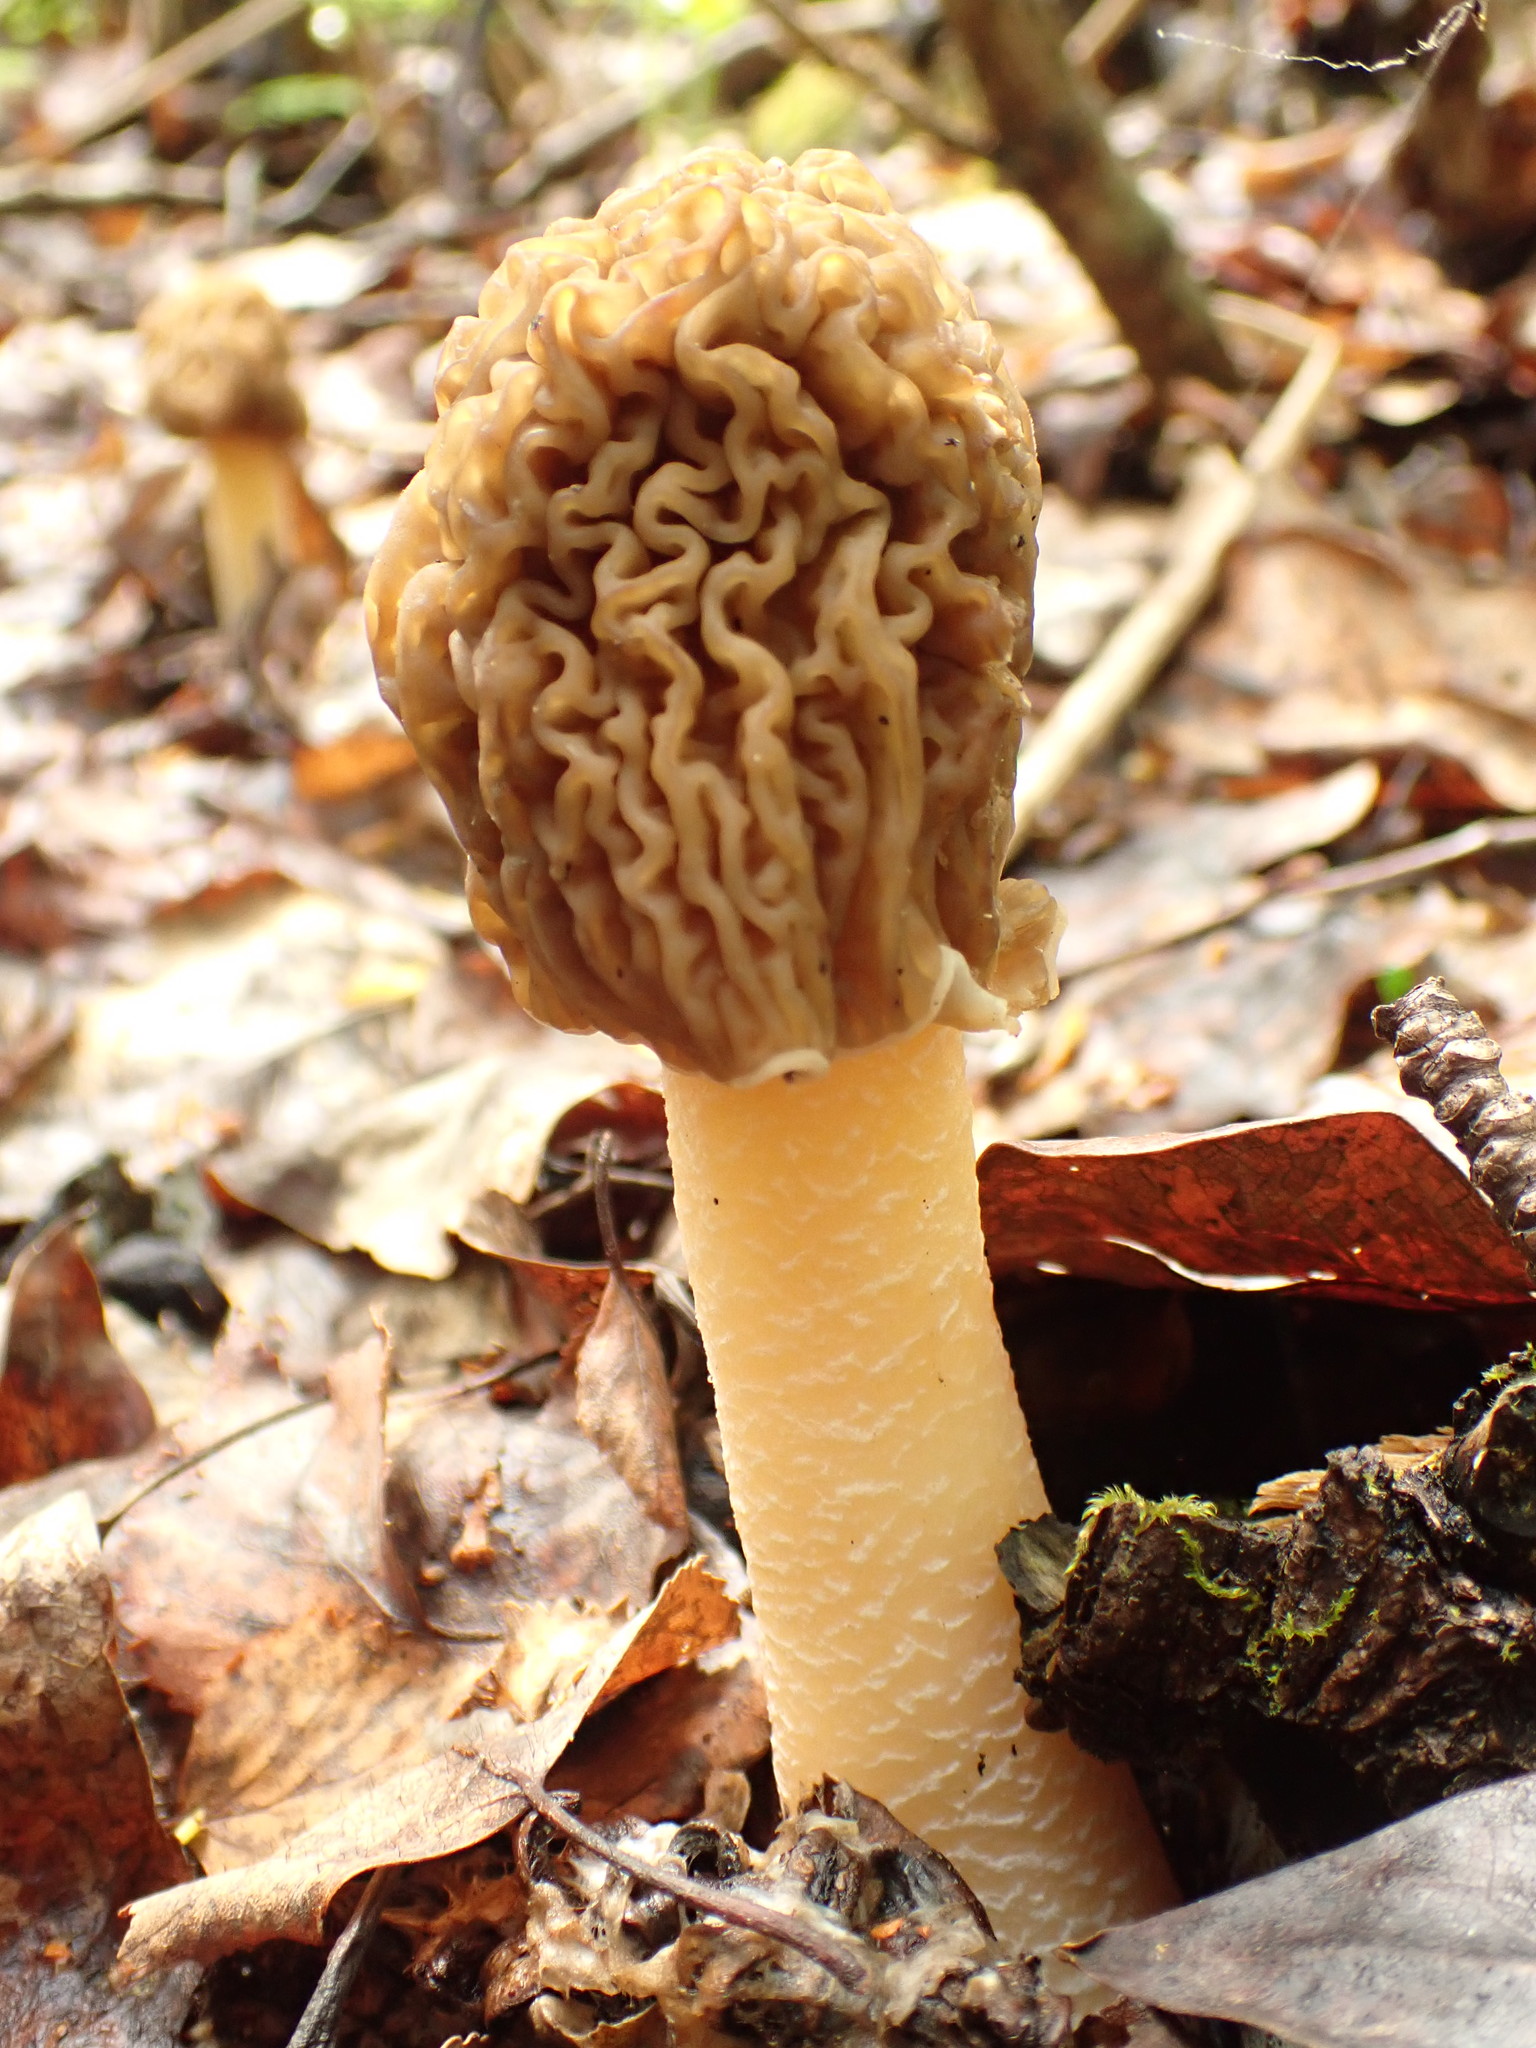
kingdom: Fungi
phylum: Ascomycota
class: Pezizomycetes
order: Pezizales
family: Morchellaceae
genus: Verpa
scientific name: Verpa bohemica
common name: Wrinkled thimble morel
